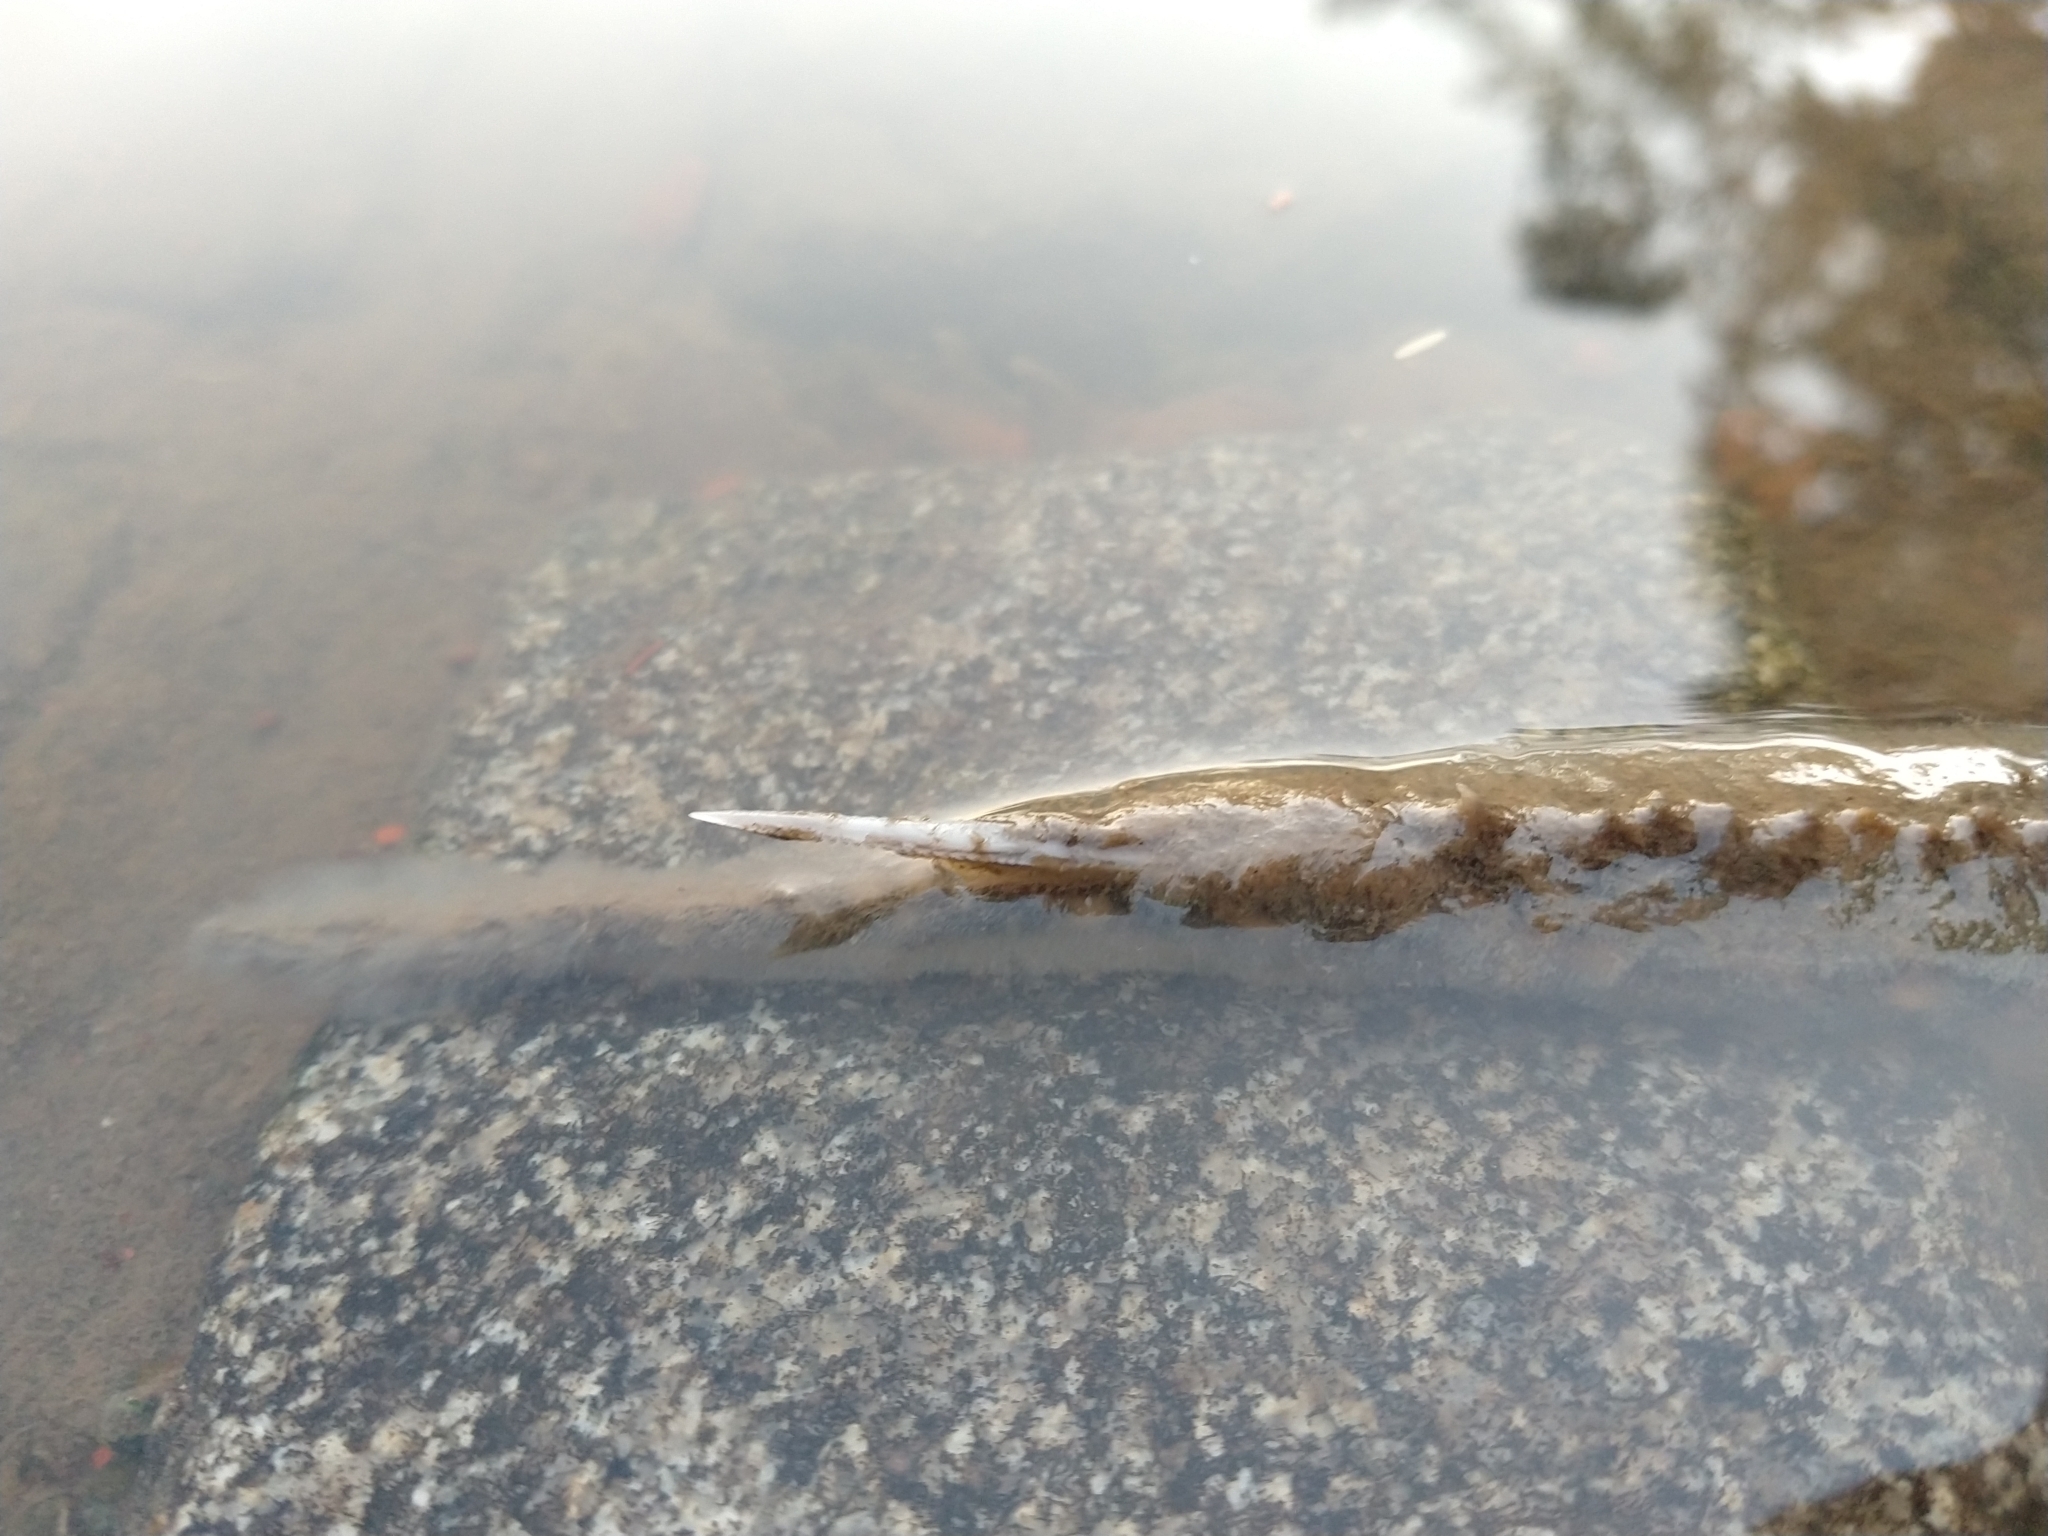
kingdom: Animalia
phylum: Chordata
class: Elasmobranchii
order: Myliobatiformes
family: Potamotrygonidae
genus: Potamotrygon
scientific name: Potamotrygon motoro
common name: South american freshwater stingray
